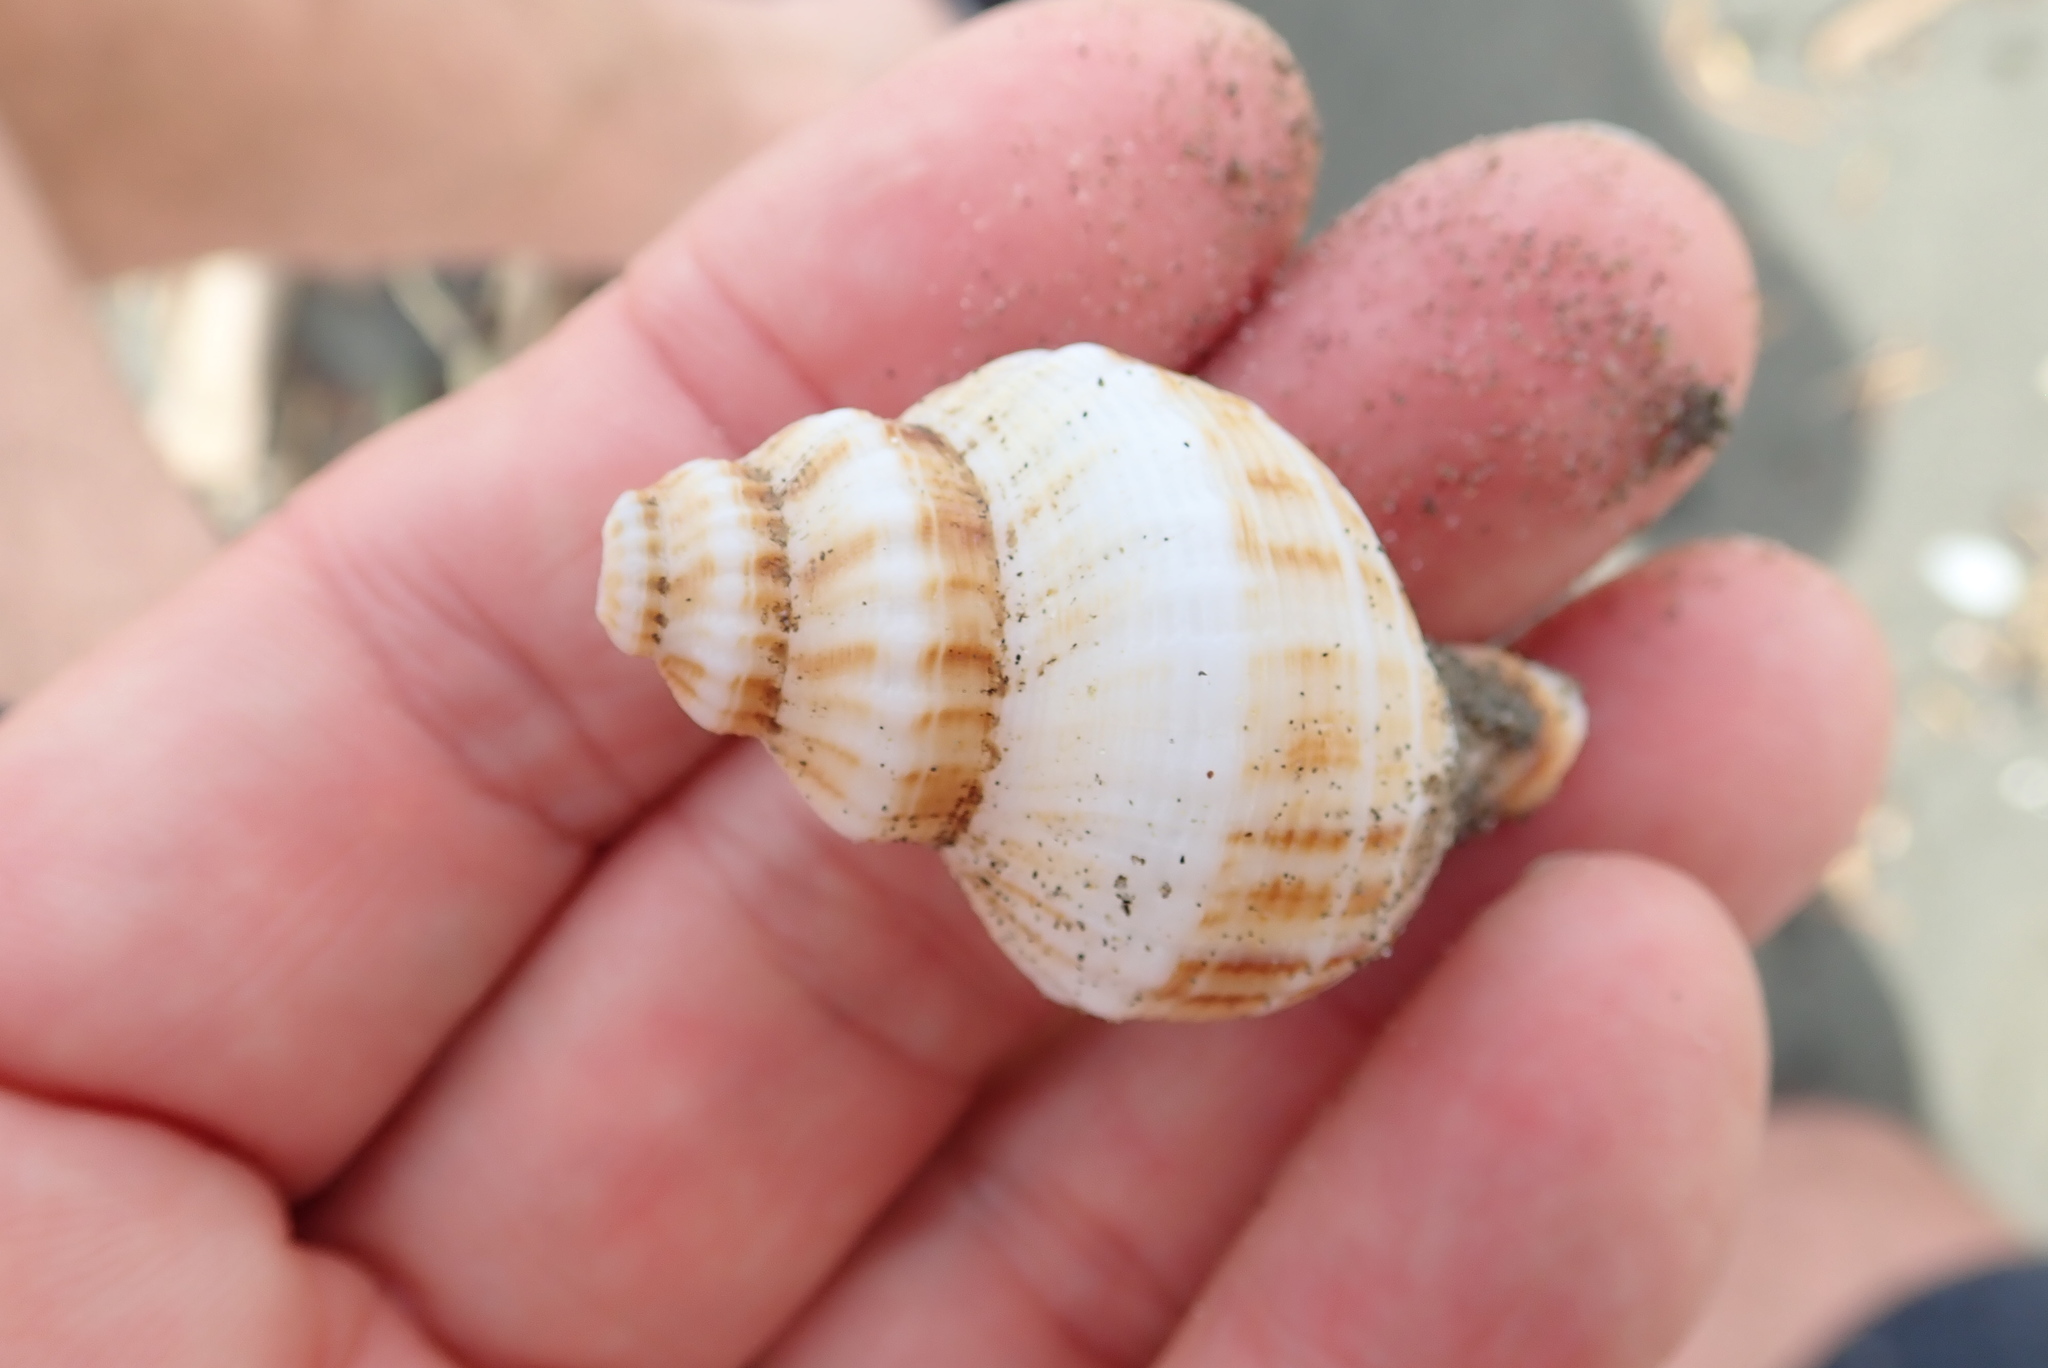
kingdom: Animalia
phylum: Mollusca
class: Gastropoda
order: Neogastropoda
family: Prosiphonidae
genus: Austrofusus
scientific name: Austrofusus glans
